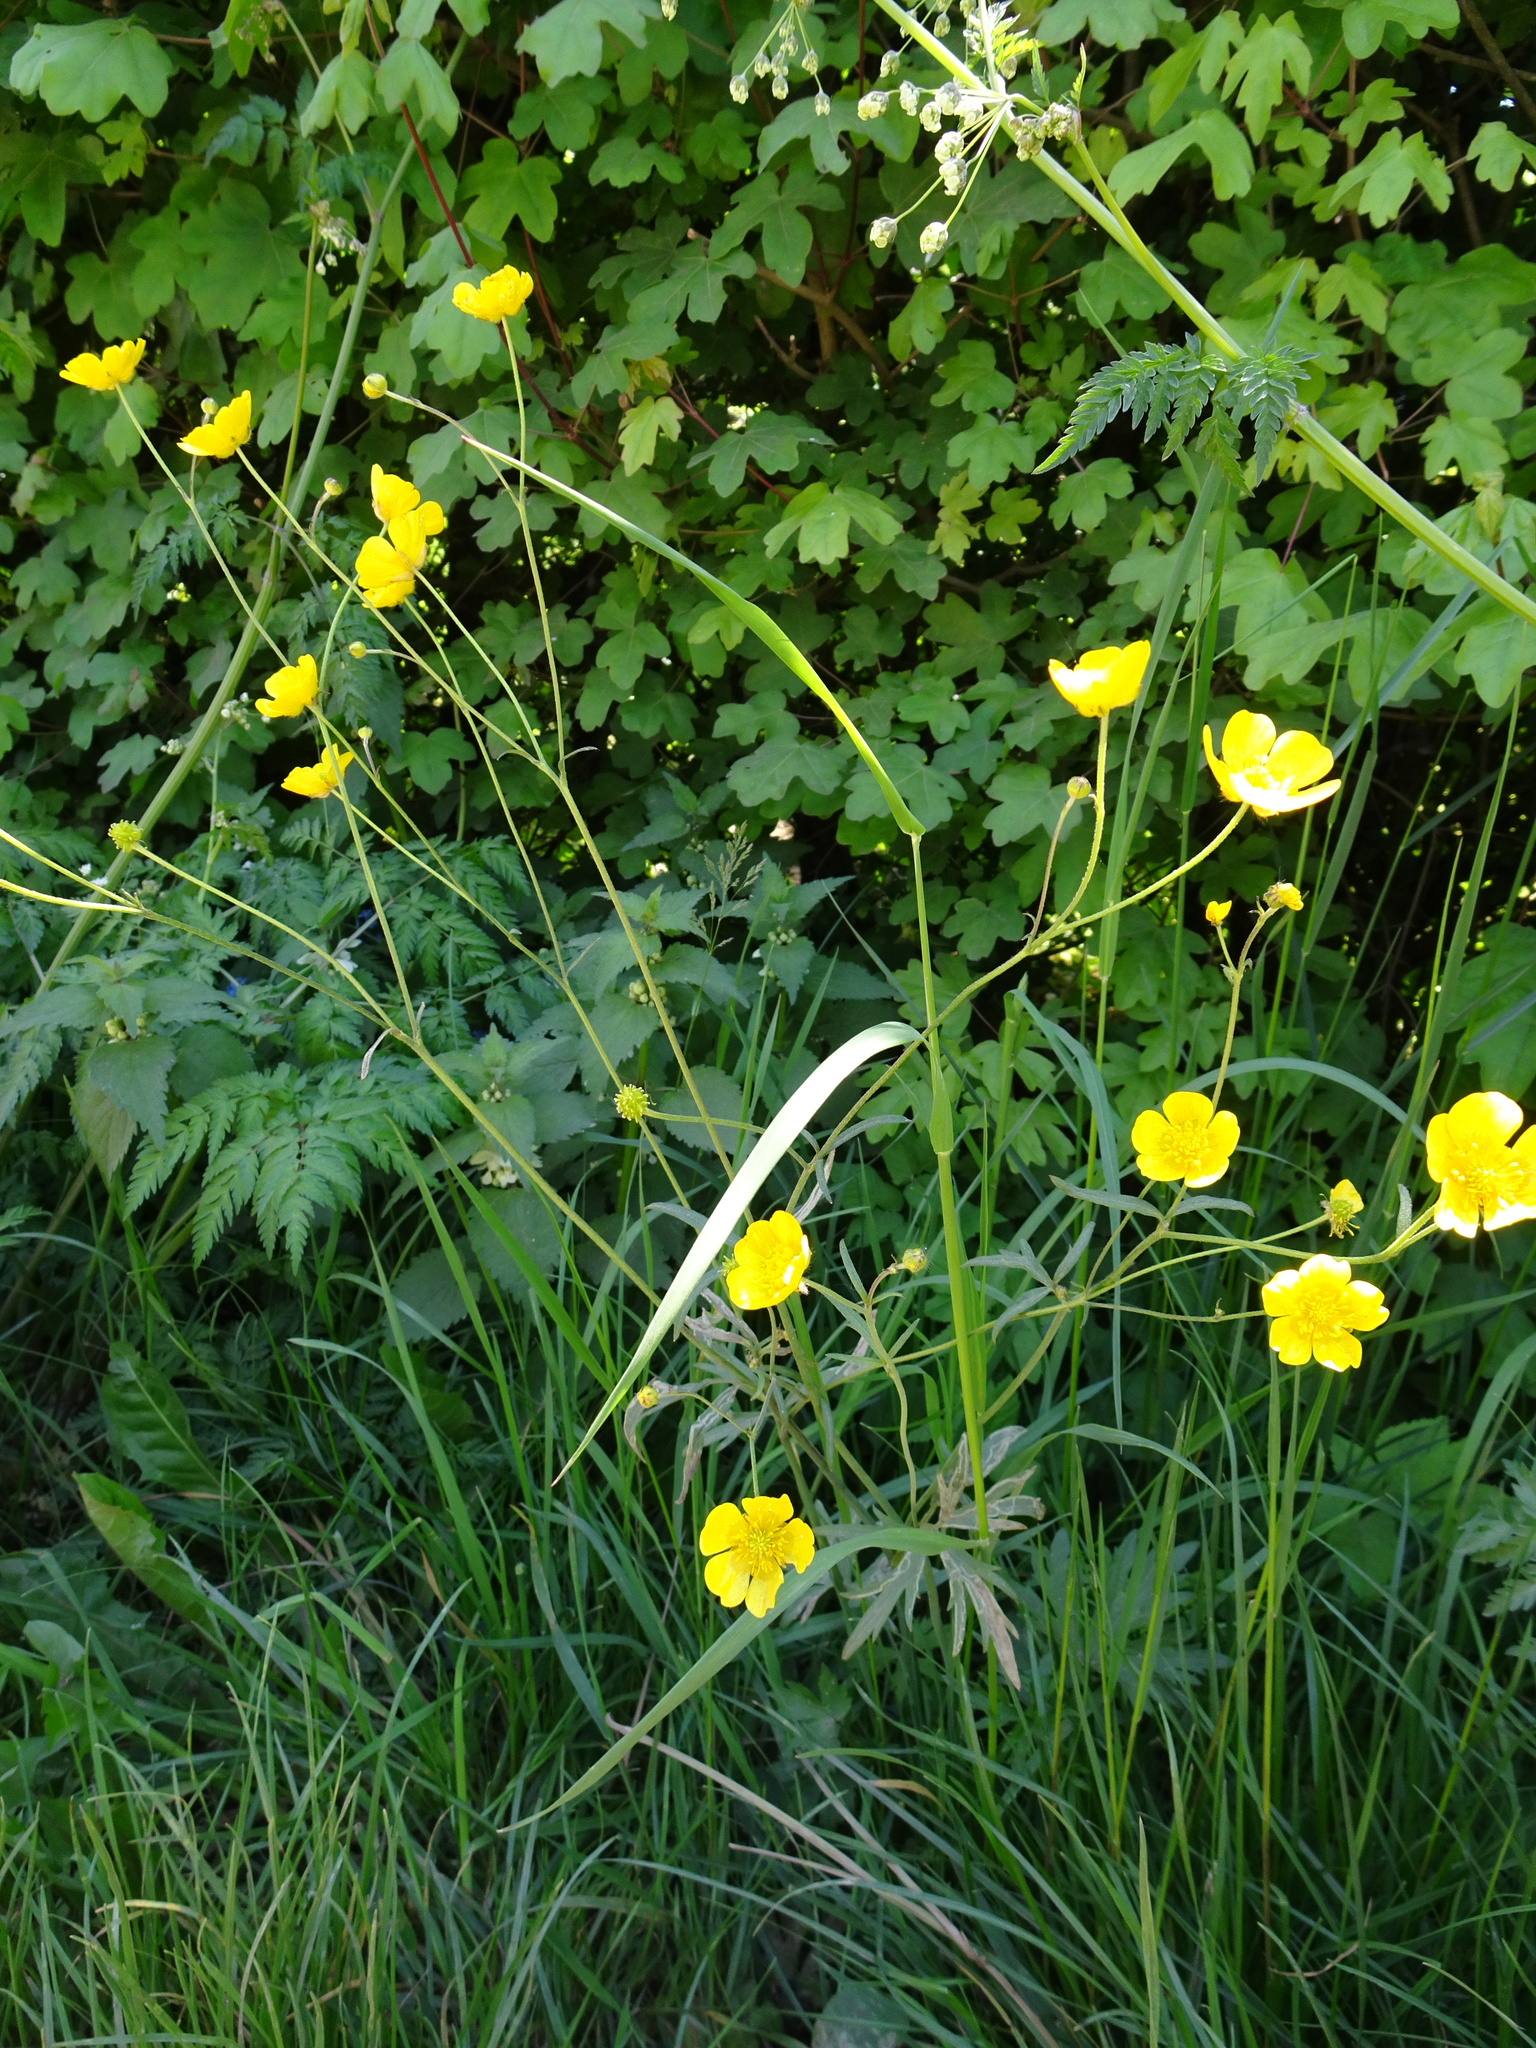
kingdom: Plantae
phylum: Tracheophyta
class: Magnoliopsida
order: Ranunculales
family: Ranunculaceae
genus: Ranunculus
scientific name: Ranunculus acris
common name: Meadow buttercup
